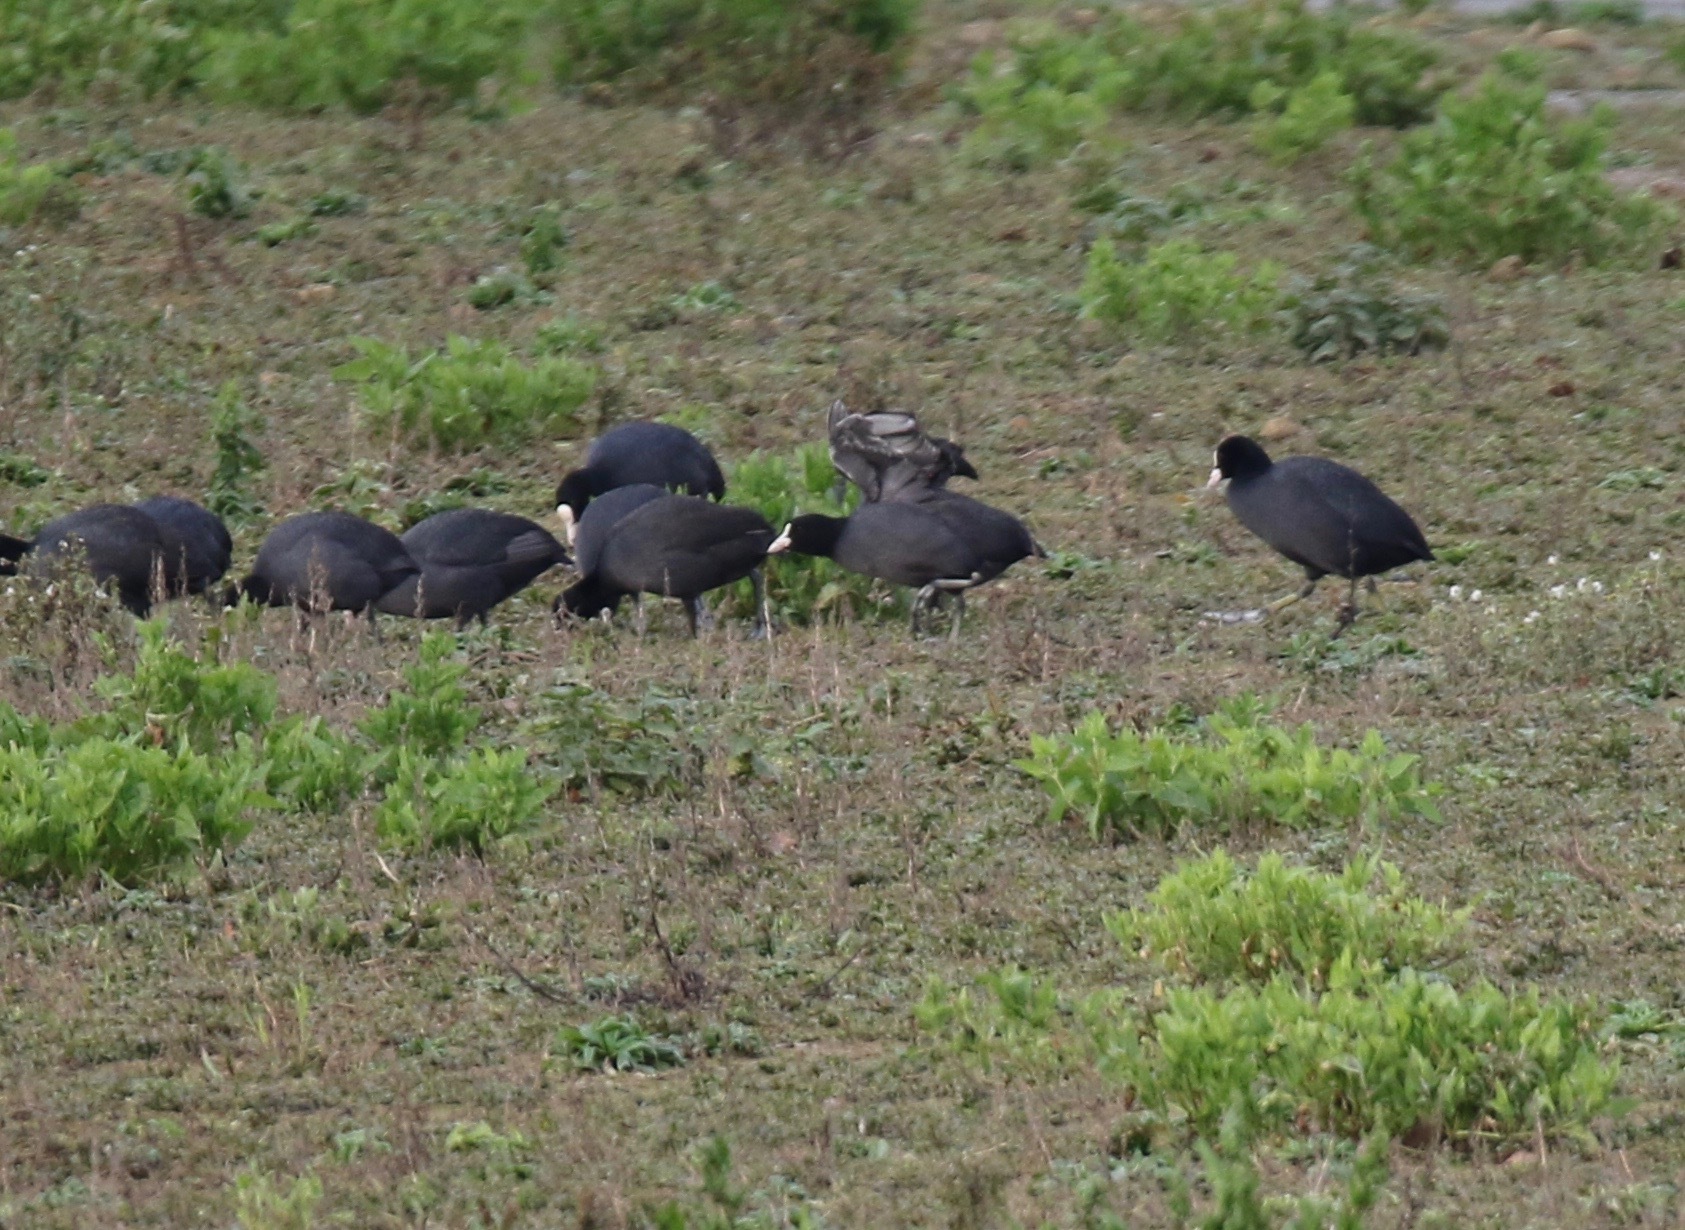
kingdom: Animalia
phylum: Chordata
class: Aves
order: Gruiformes
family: Rallidae
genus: Fulica
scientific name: Fulica atra
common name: Eurasian coot
